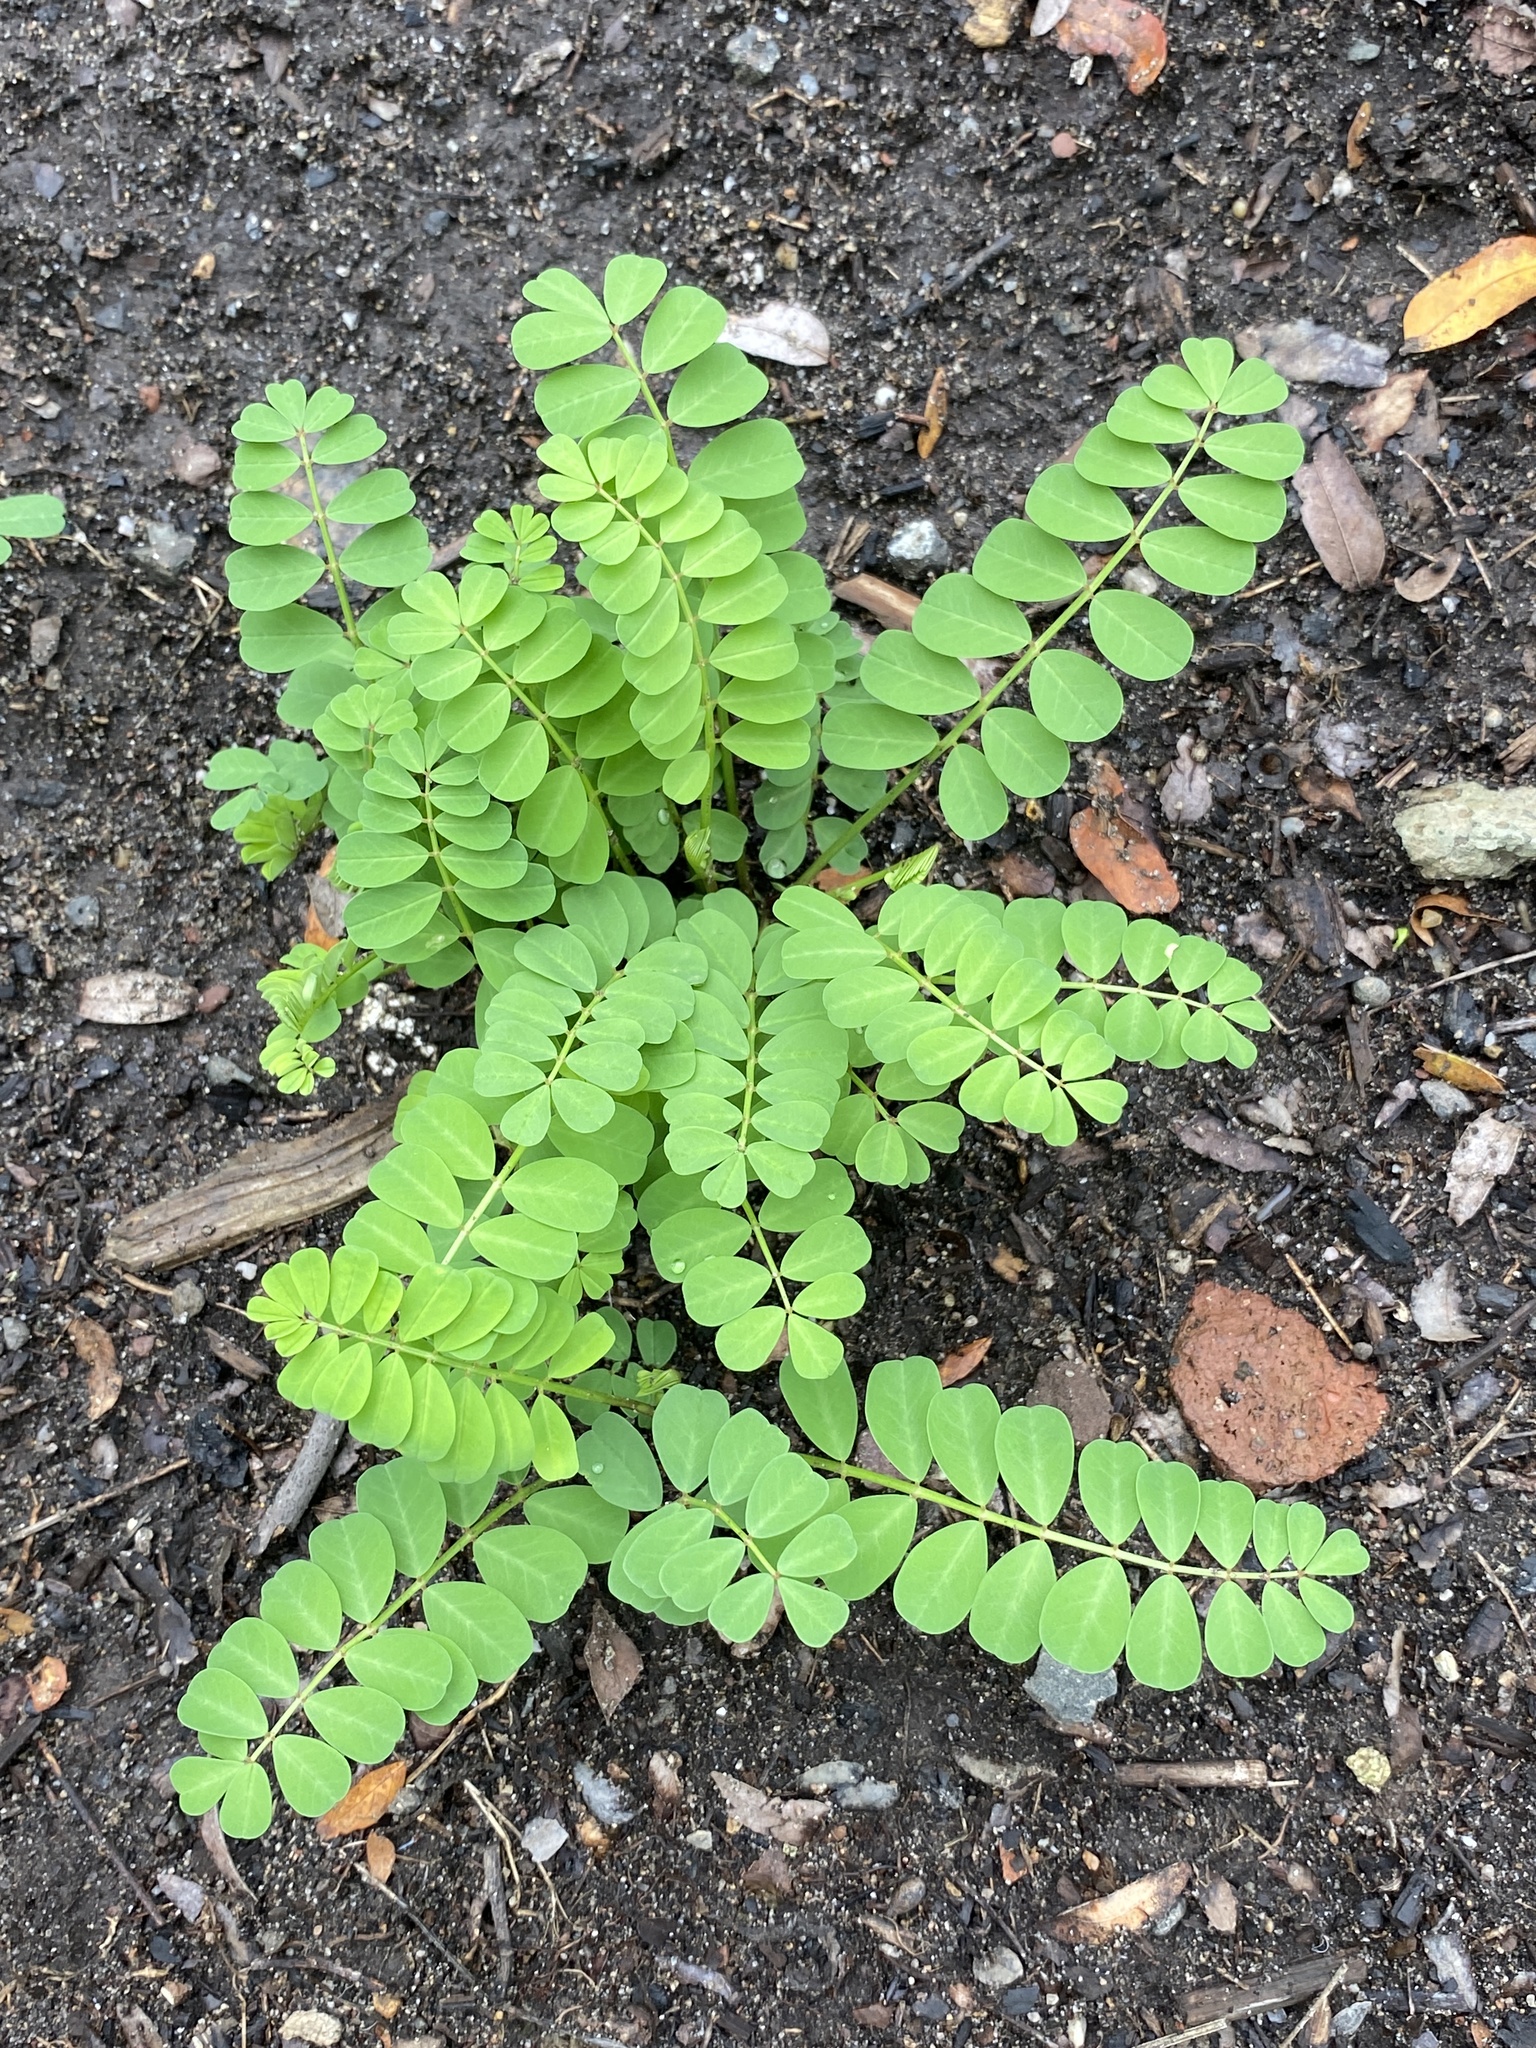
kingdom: Plantae
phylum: Tracheophyta
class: Magnoliopsida
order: Fabales
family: Fabaceae
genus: Coronilla
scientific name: Coronilla varia
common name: Crownvetch
